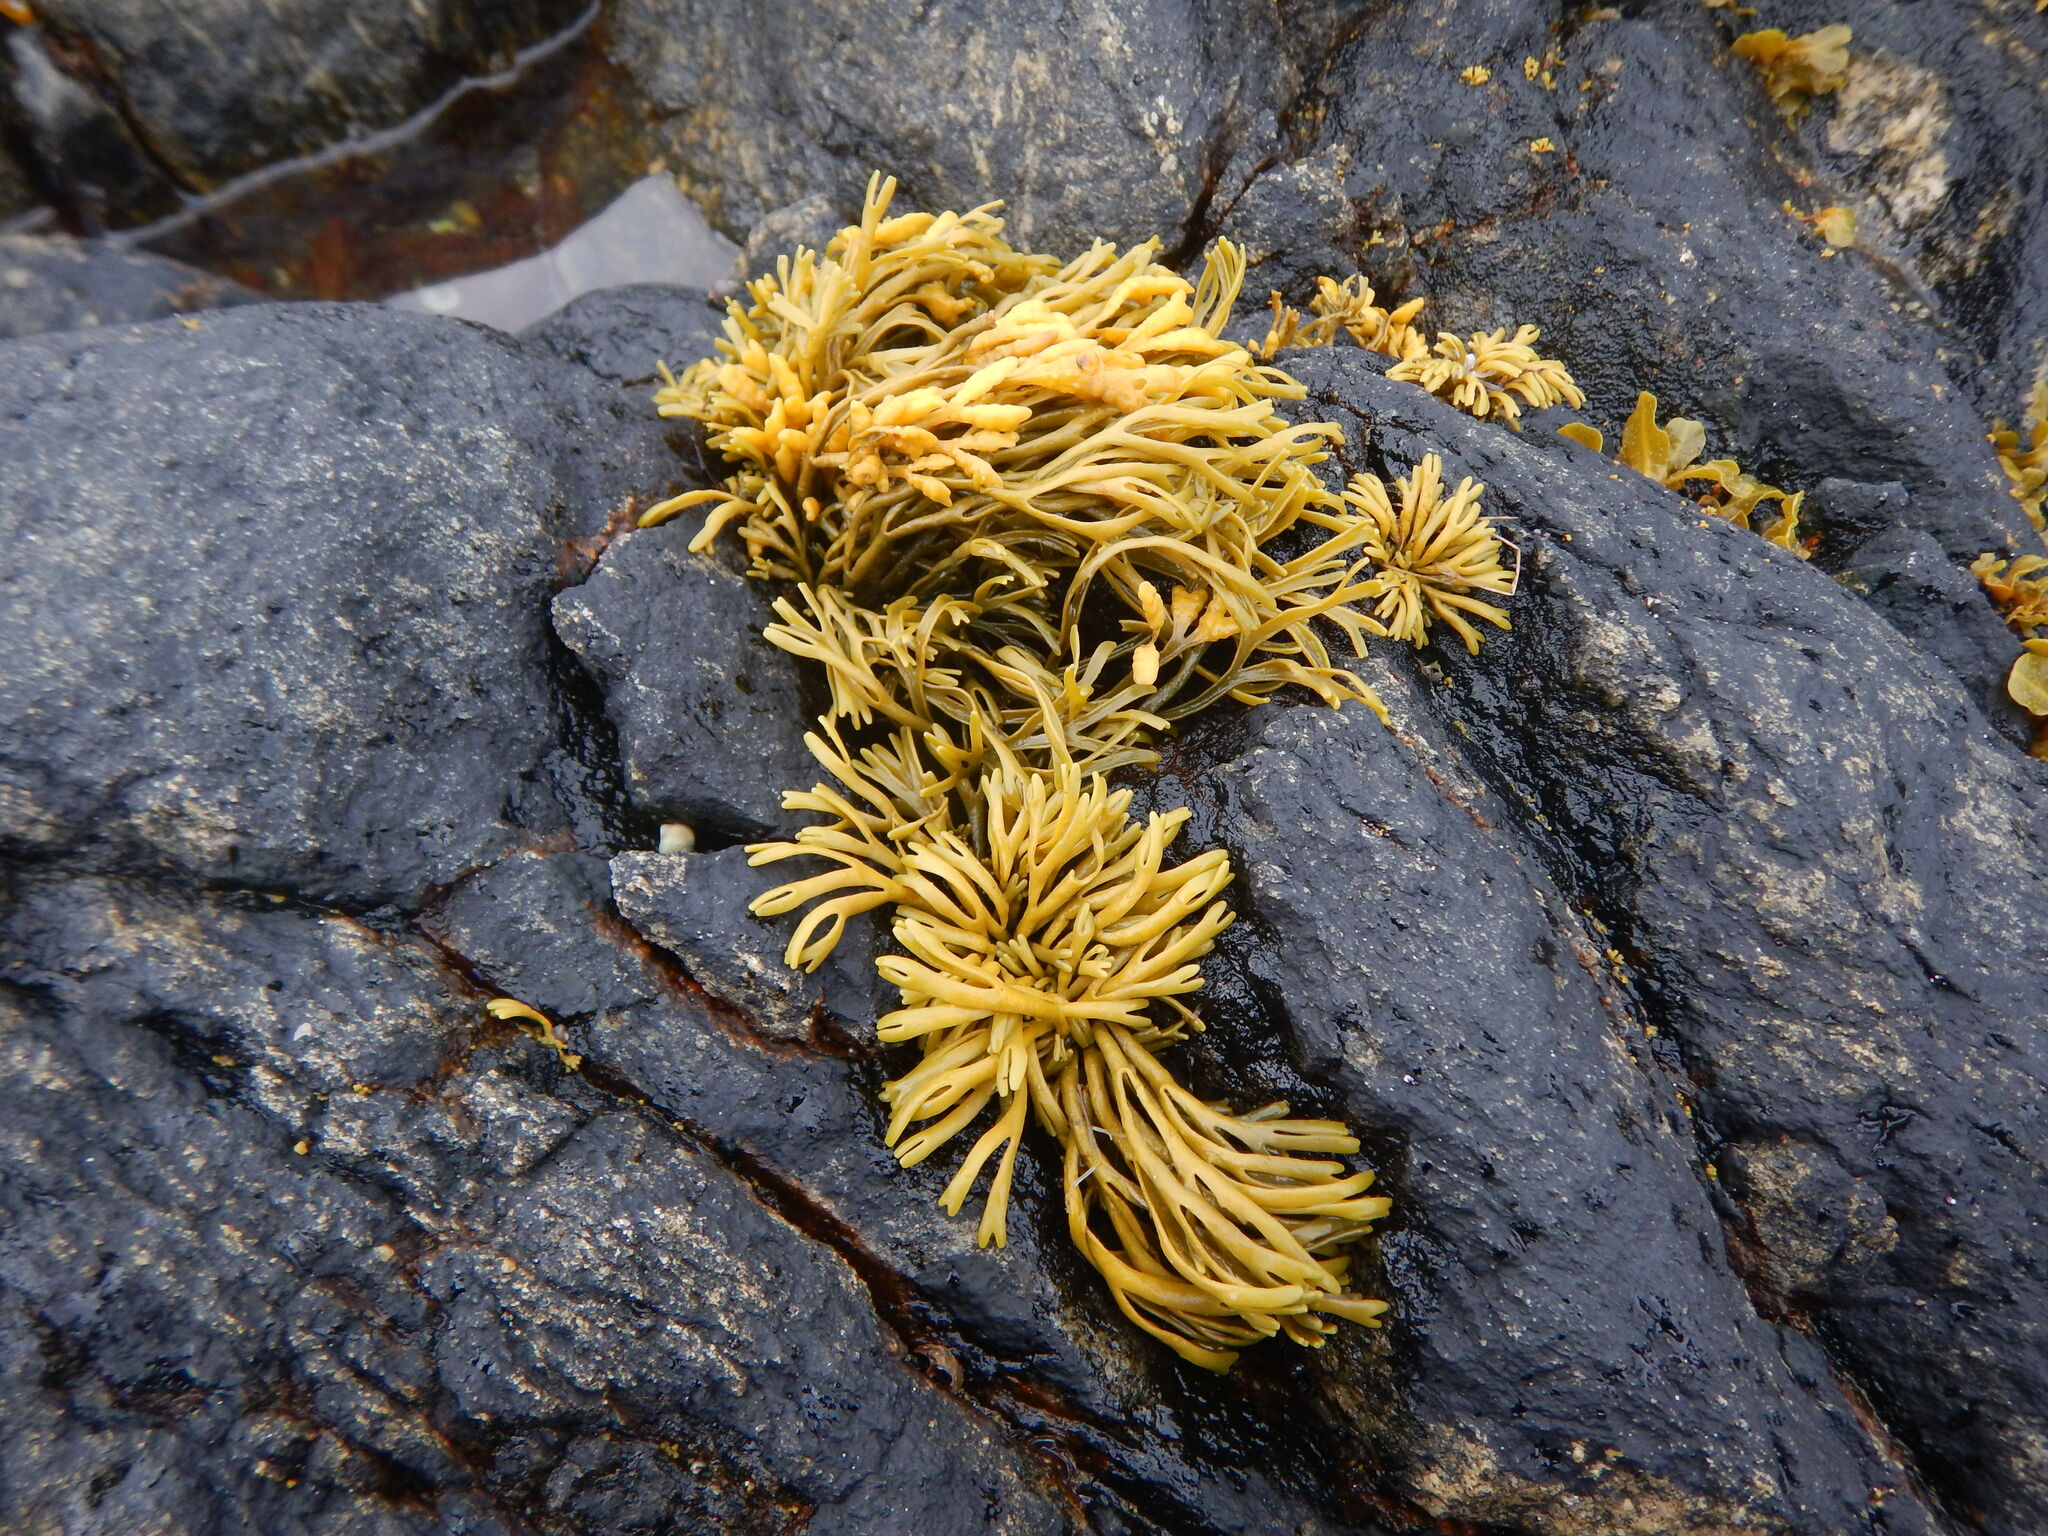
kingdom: Chromista
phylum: Ochrophyta
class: Phaeophyceae
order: Fucales
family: Fucaceae
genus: Pelvetia
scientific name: Pelvetia canaliculata
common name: Channelled wrack
